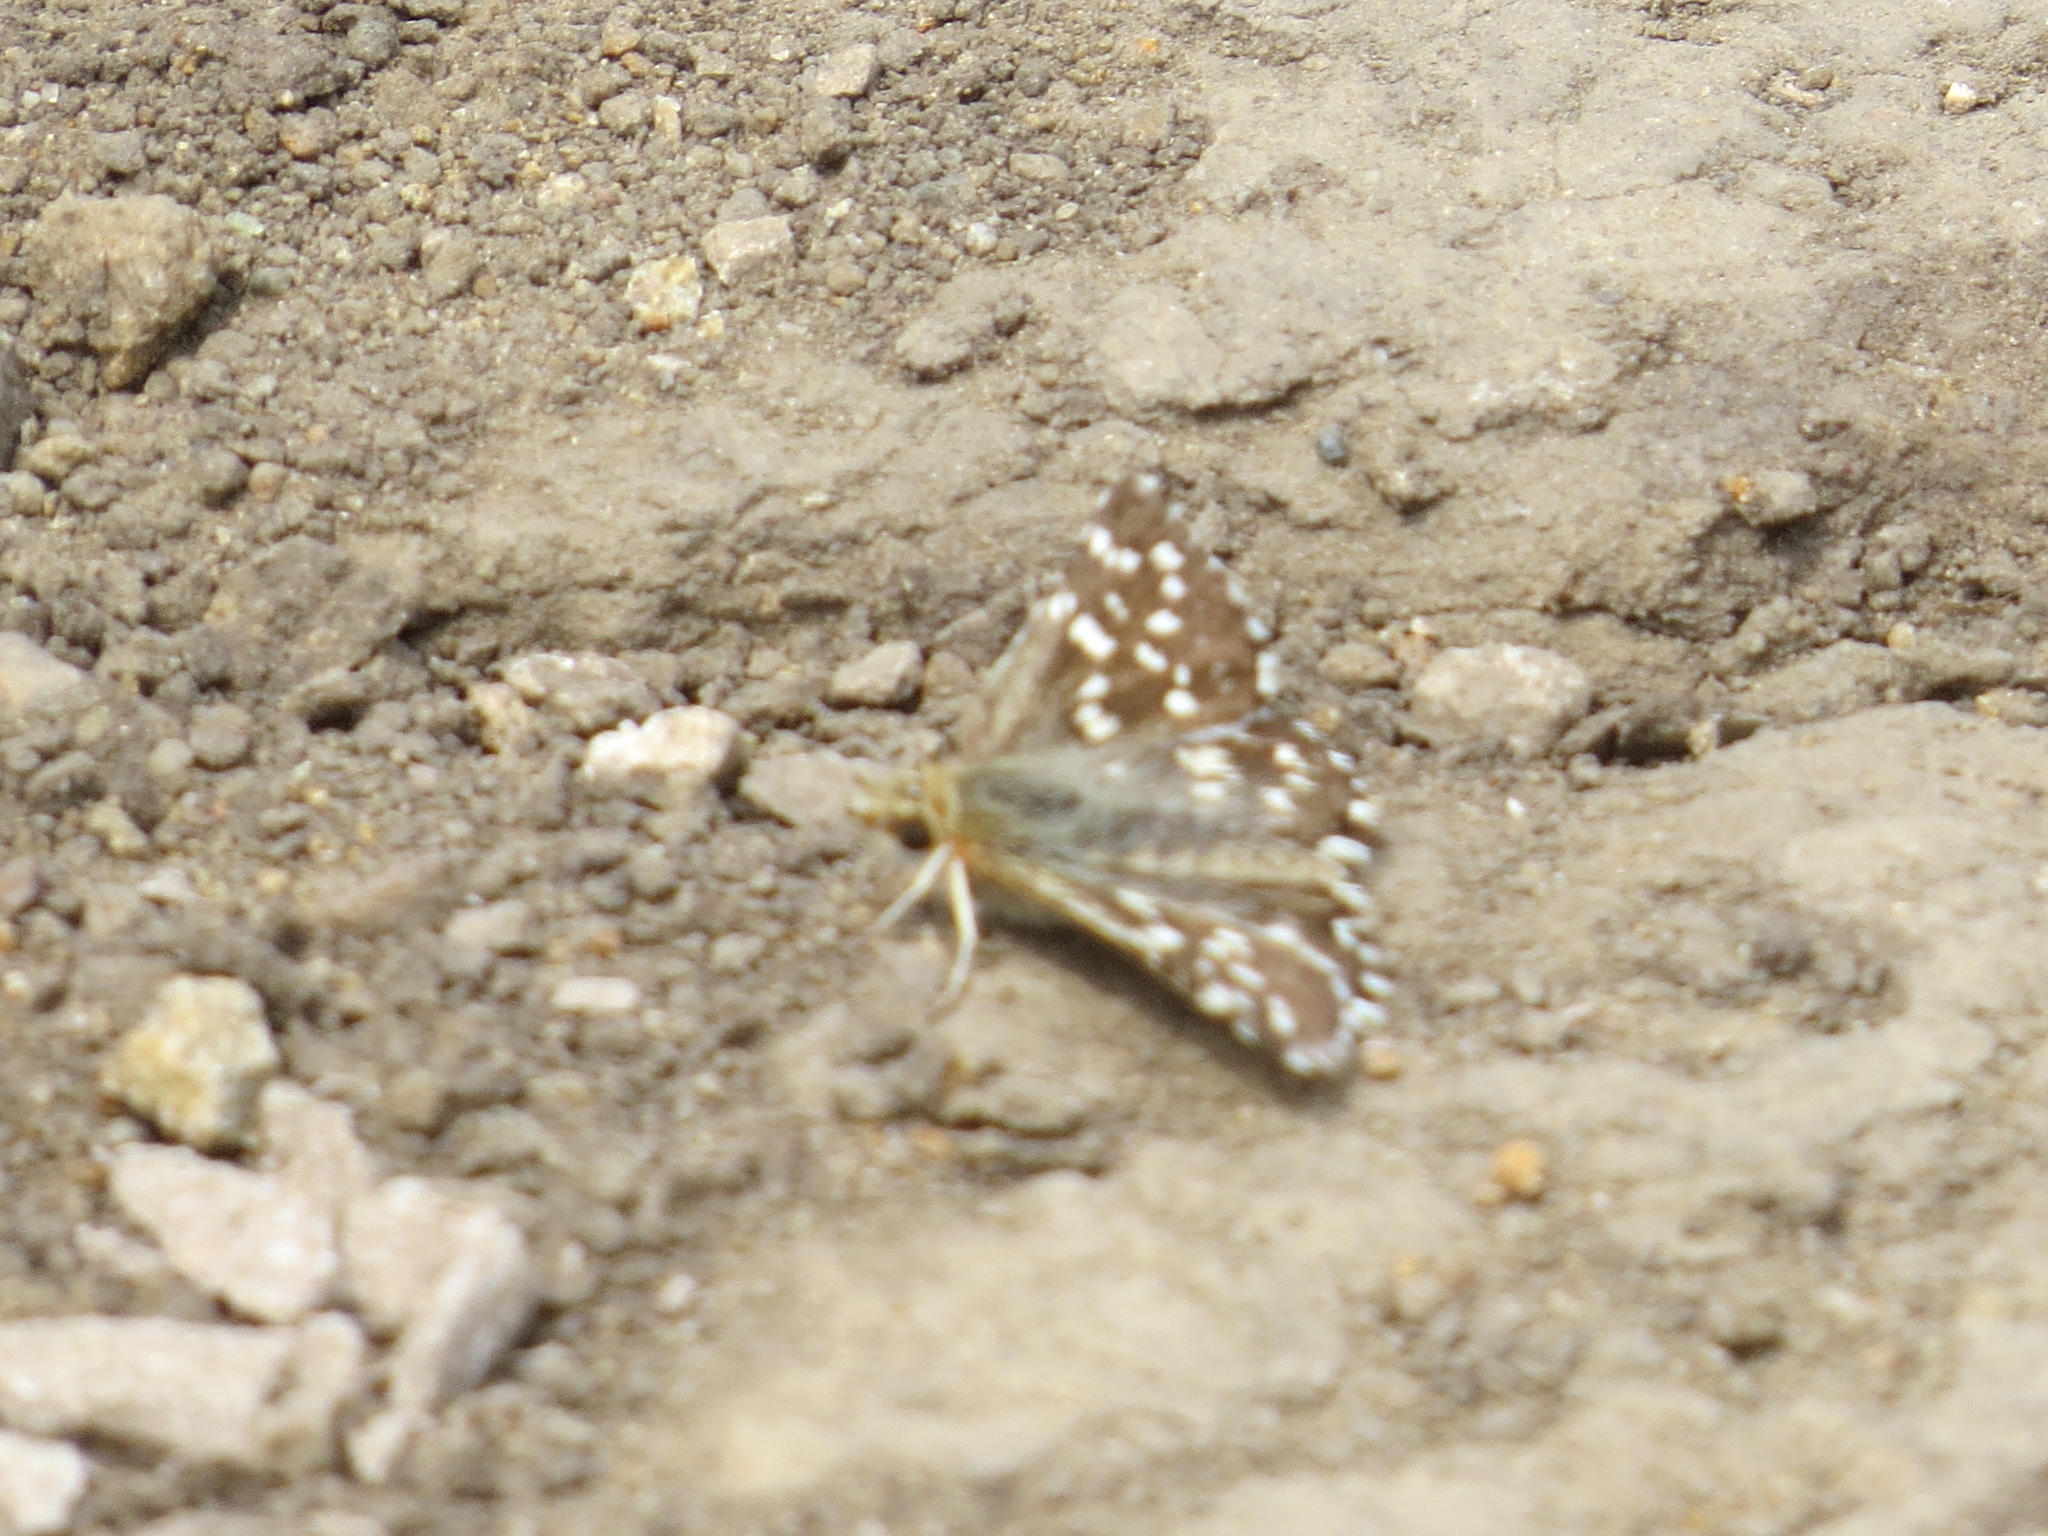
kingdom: Animalia
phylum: Arthropoda
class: Insecta
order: Lepidoptera
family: Hesperiidae
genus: Pyrgus
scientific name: Pyrgus ruralis
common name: Two-banded checkered-skipper
